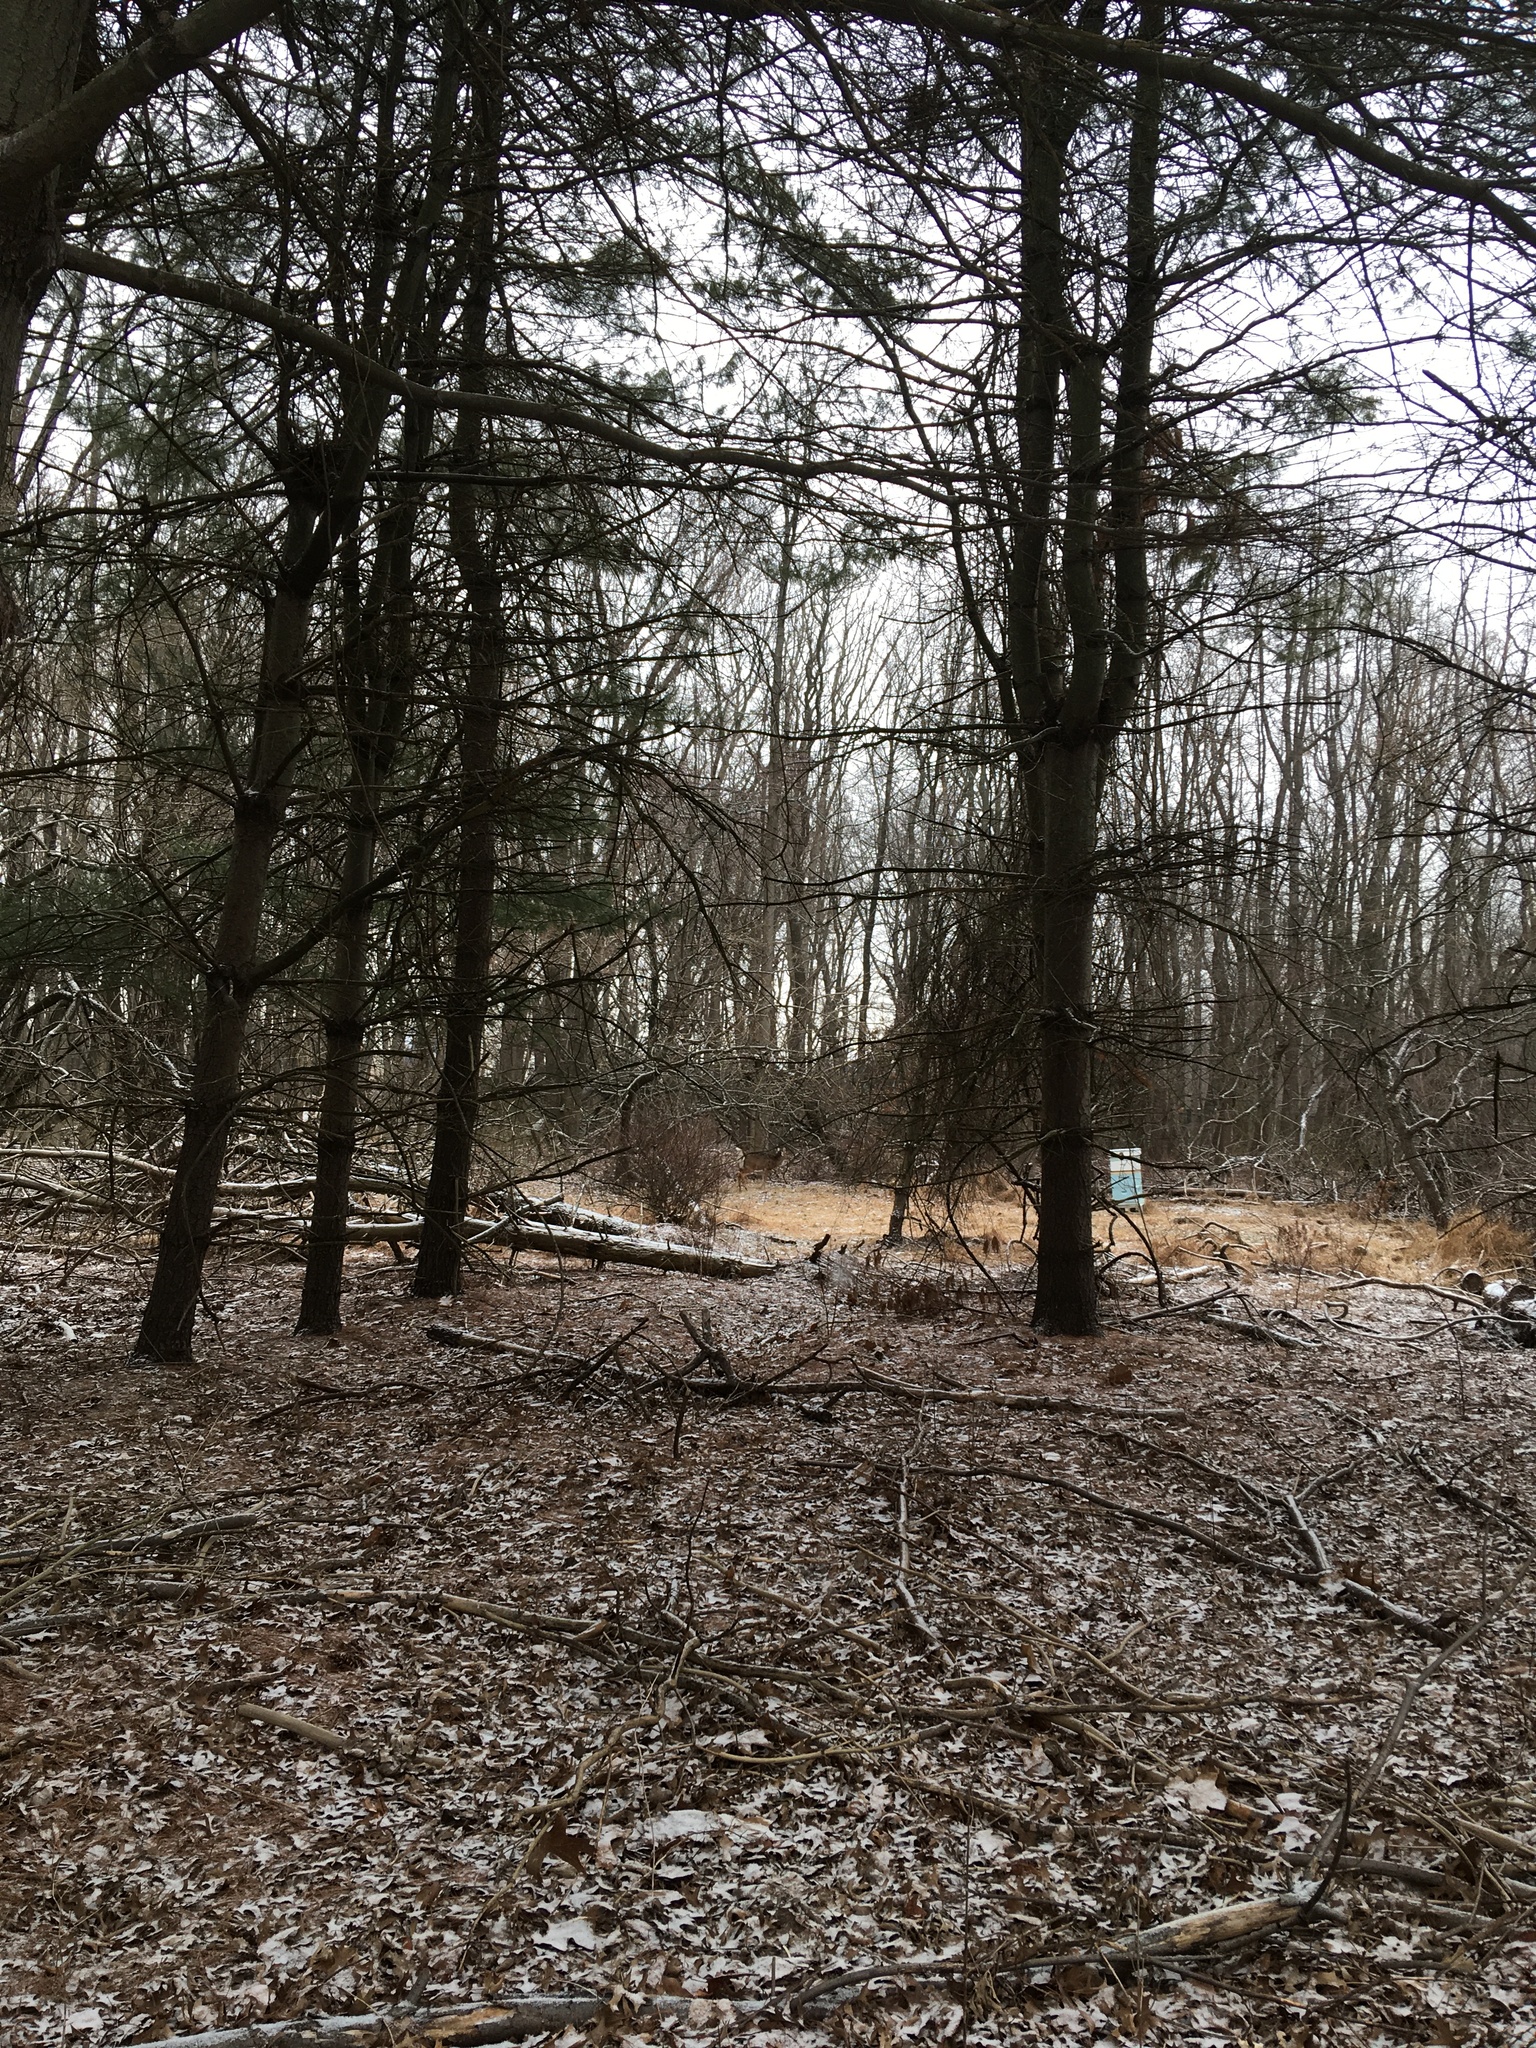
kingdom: Plantae
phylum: Tracheophyta
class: Pinopsida
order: Pinales
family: Pinaceae
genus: Pinus
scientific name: Pinus strobus
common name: Weymouth pine
